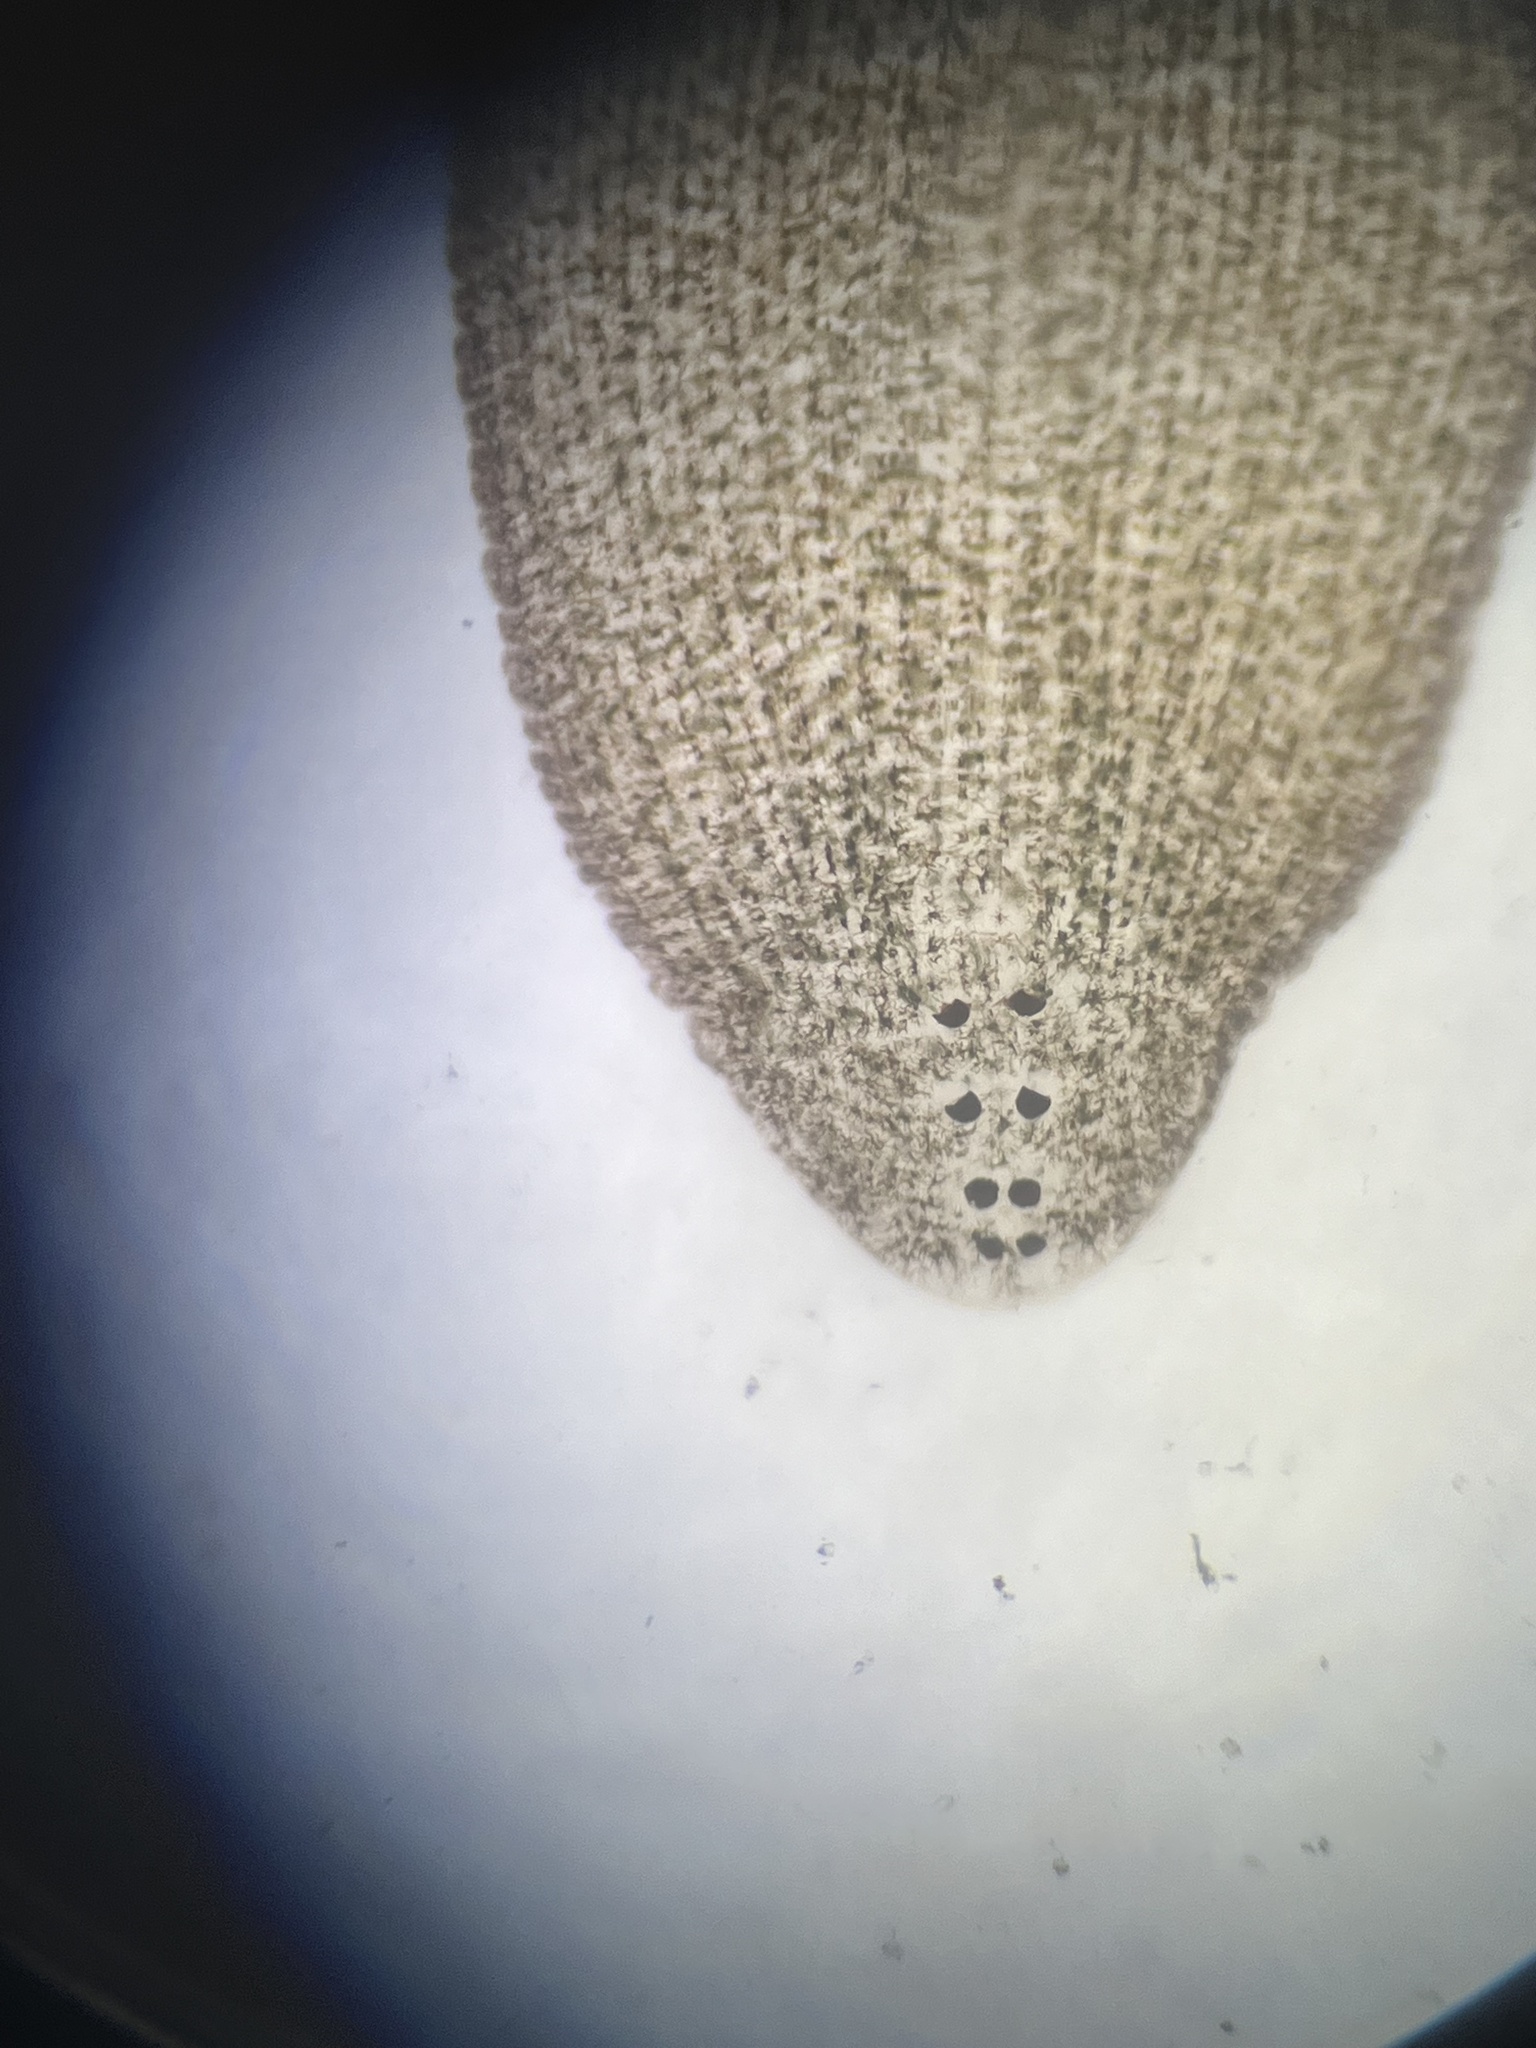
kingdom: Animalia
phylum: Annelida
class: Clitellata
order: Rhynchobdellida
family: Glossiphoniidae
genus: Theromyzon
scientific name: Theromyzon tessulatum
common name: Duck leech
